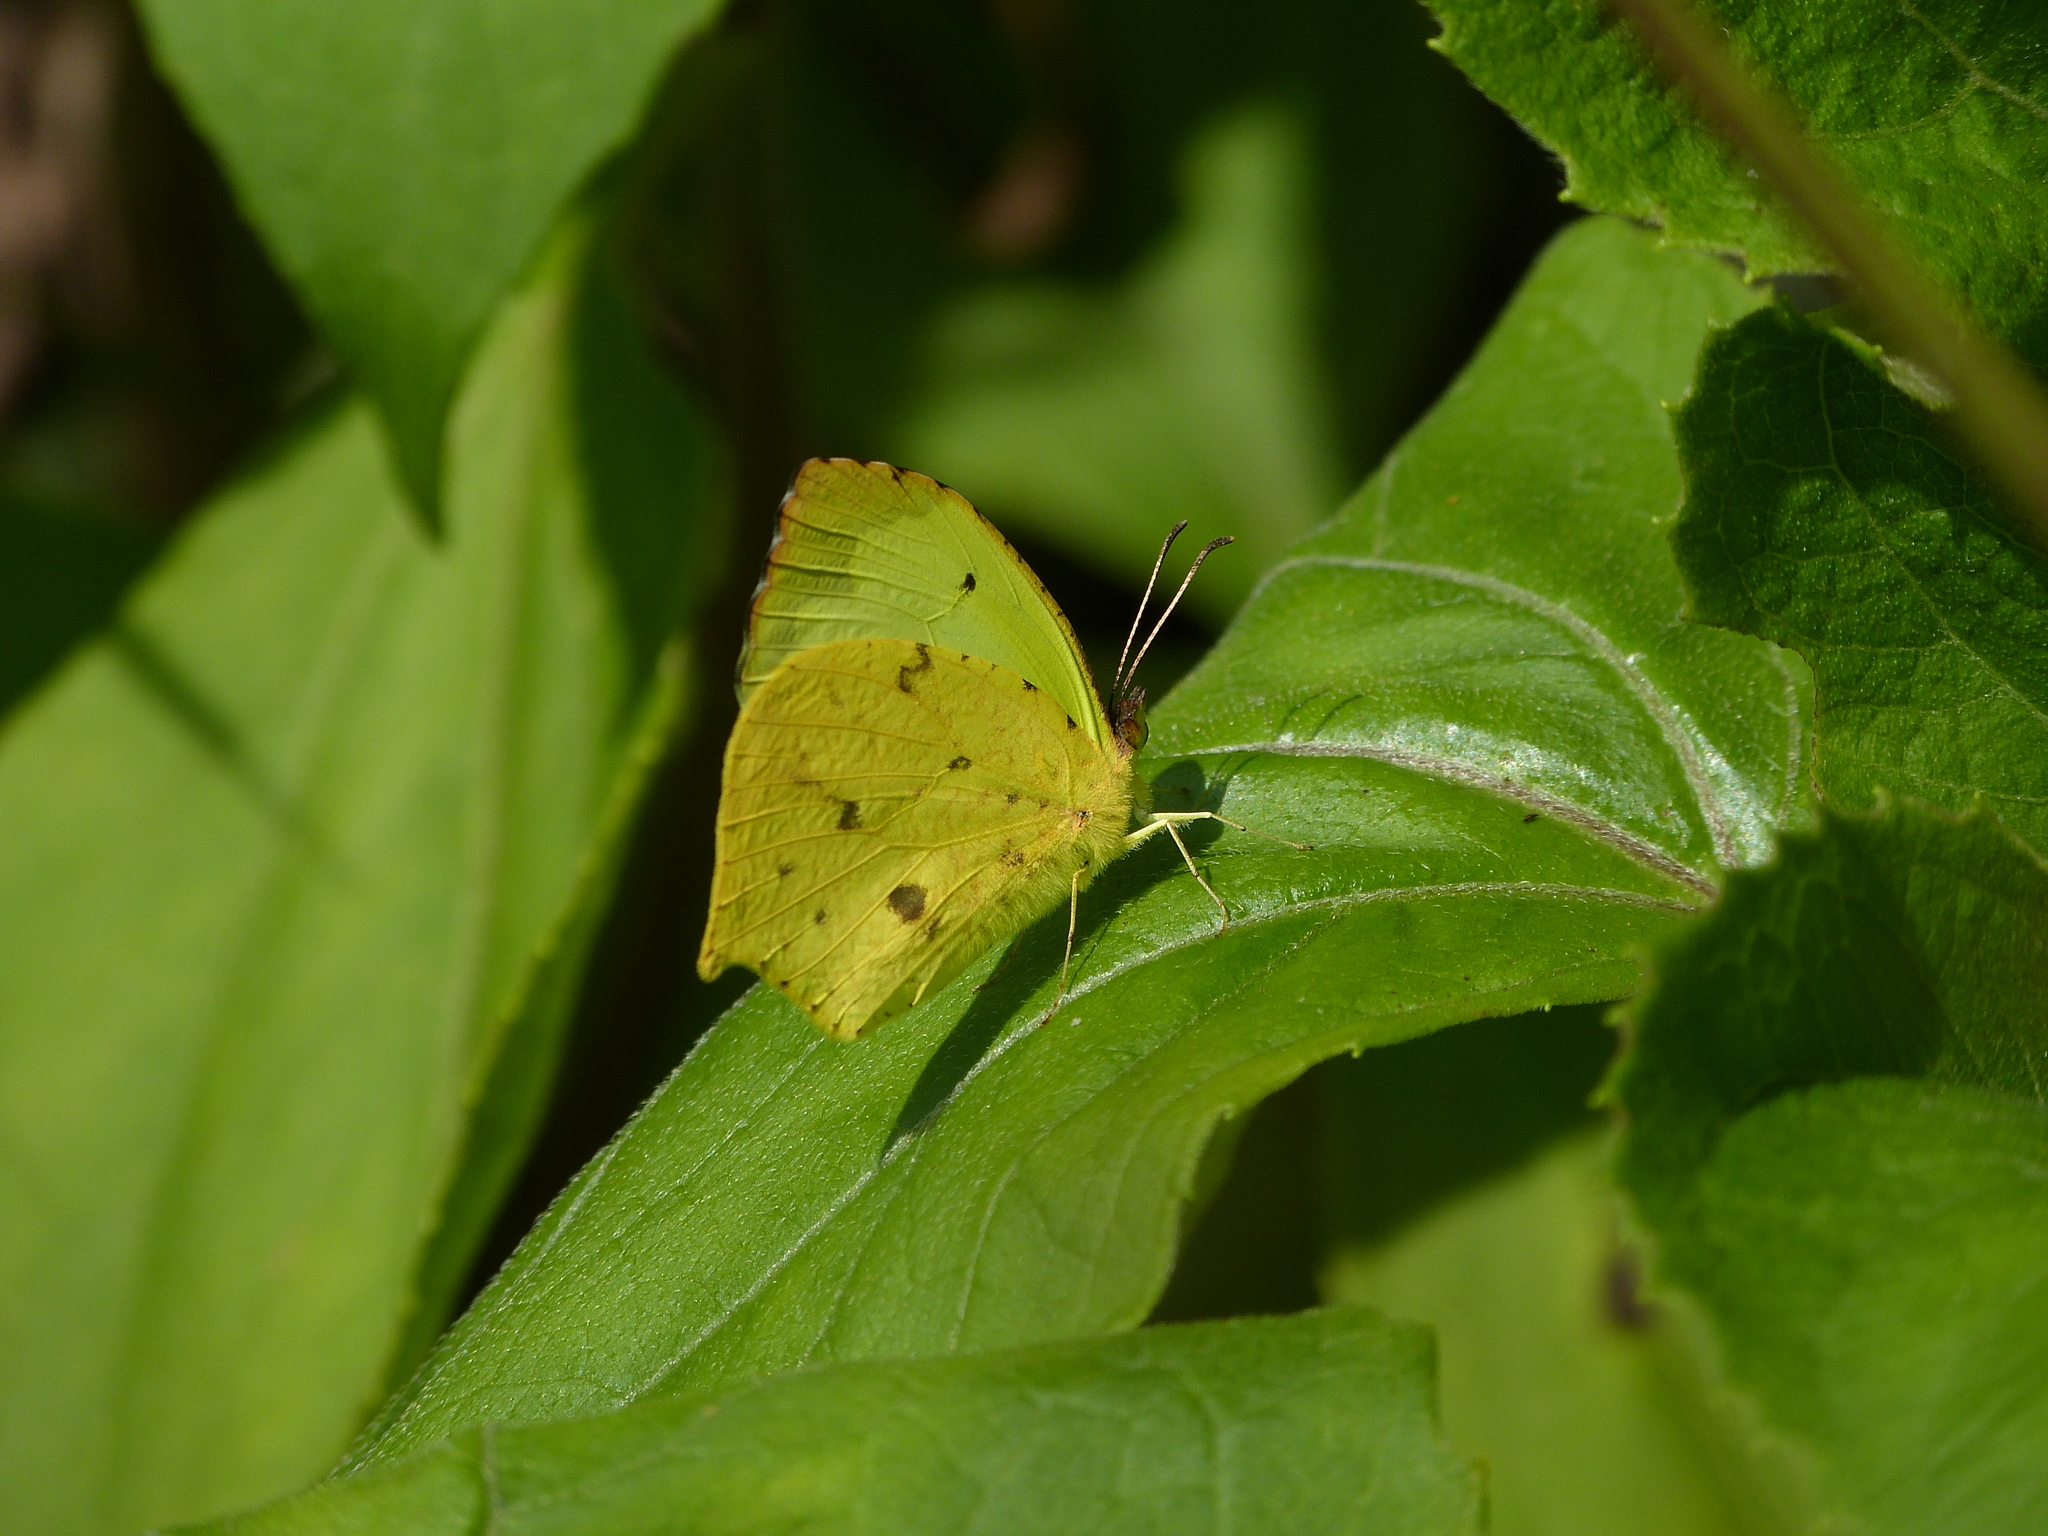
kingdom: Animalia
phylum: Arthropoda
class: Insecta
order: Lepidoptera
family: Pieridae
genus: Abaeis
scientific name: Abaeis salome
